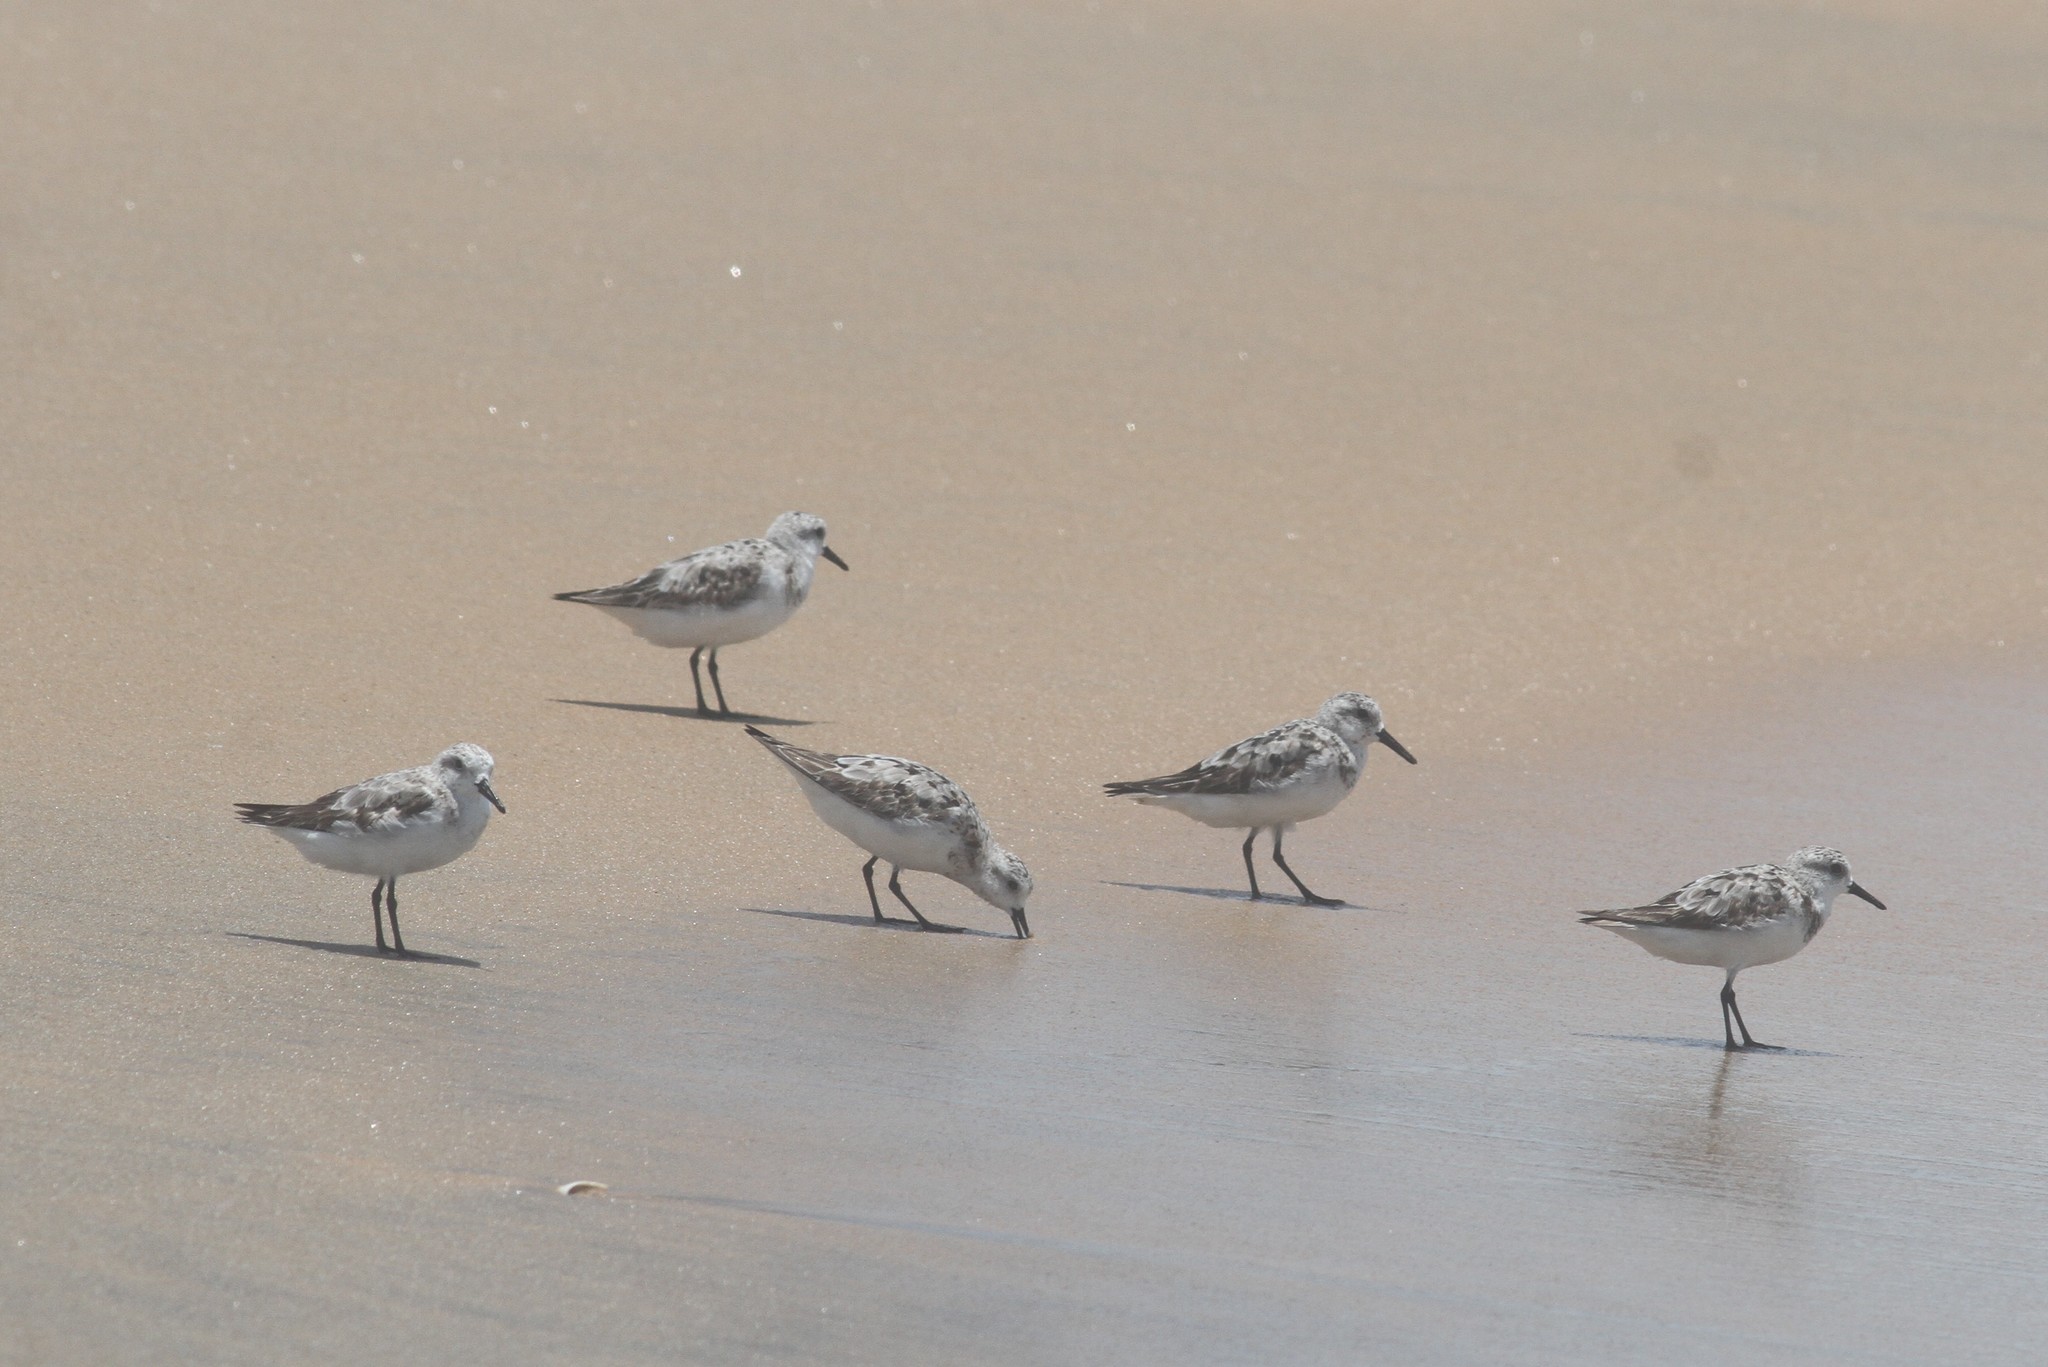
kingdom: Animalia
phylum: Chordata
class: Aves
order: Charadriiformes
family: Scolopacidae
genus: Calidris
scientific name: Calidris alba
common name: Sanderling
